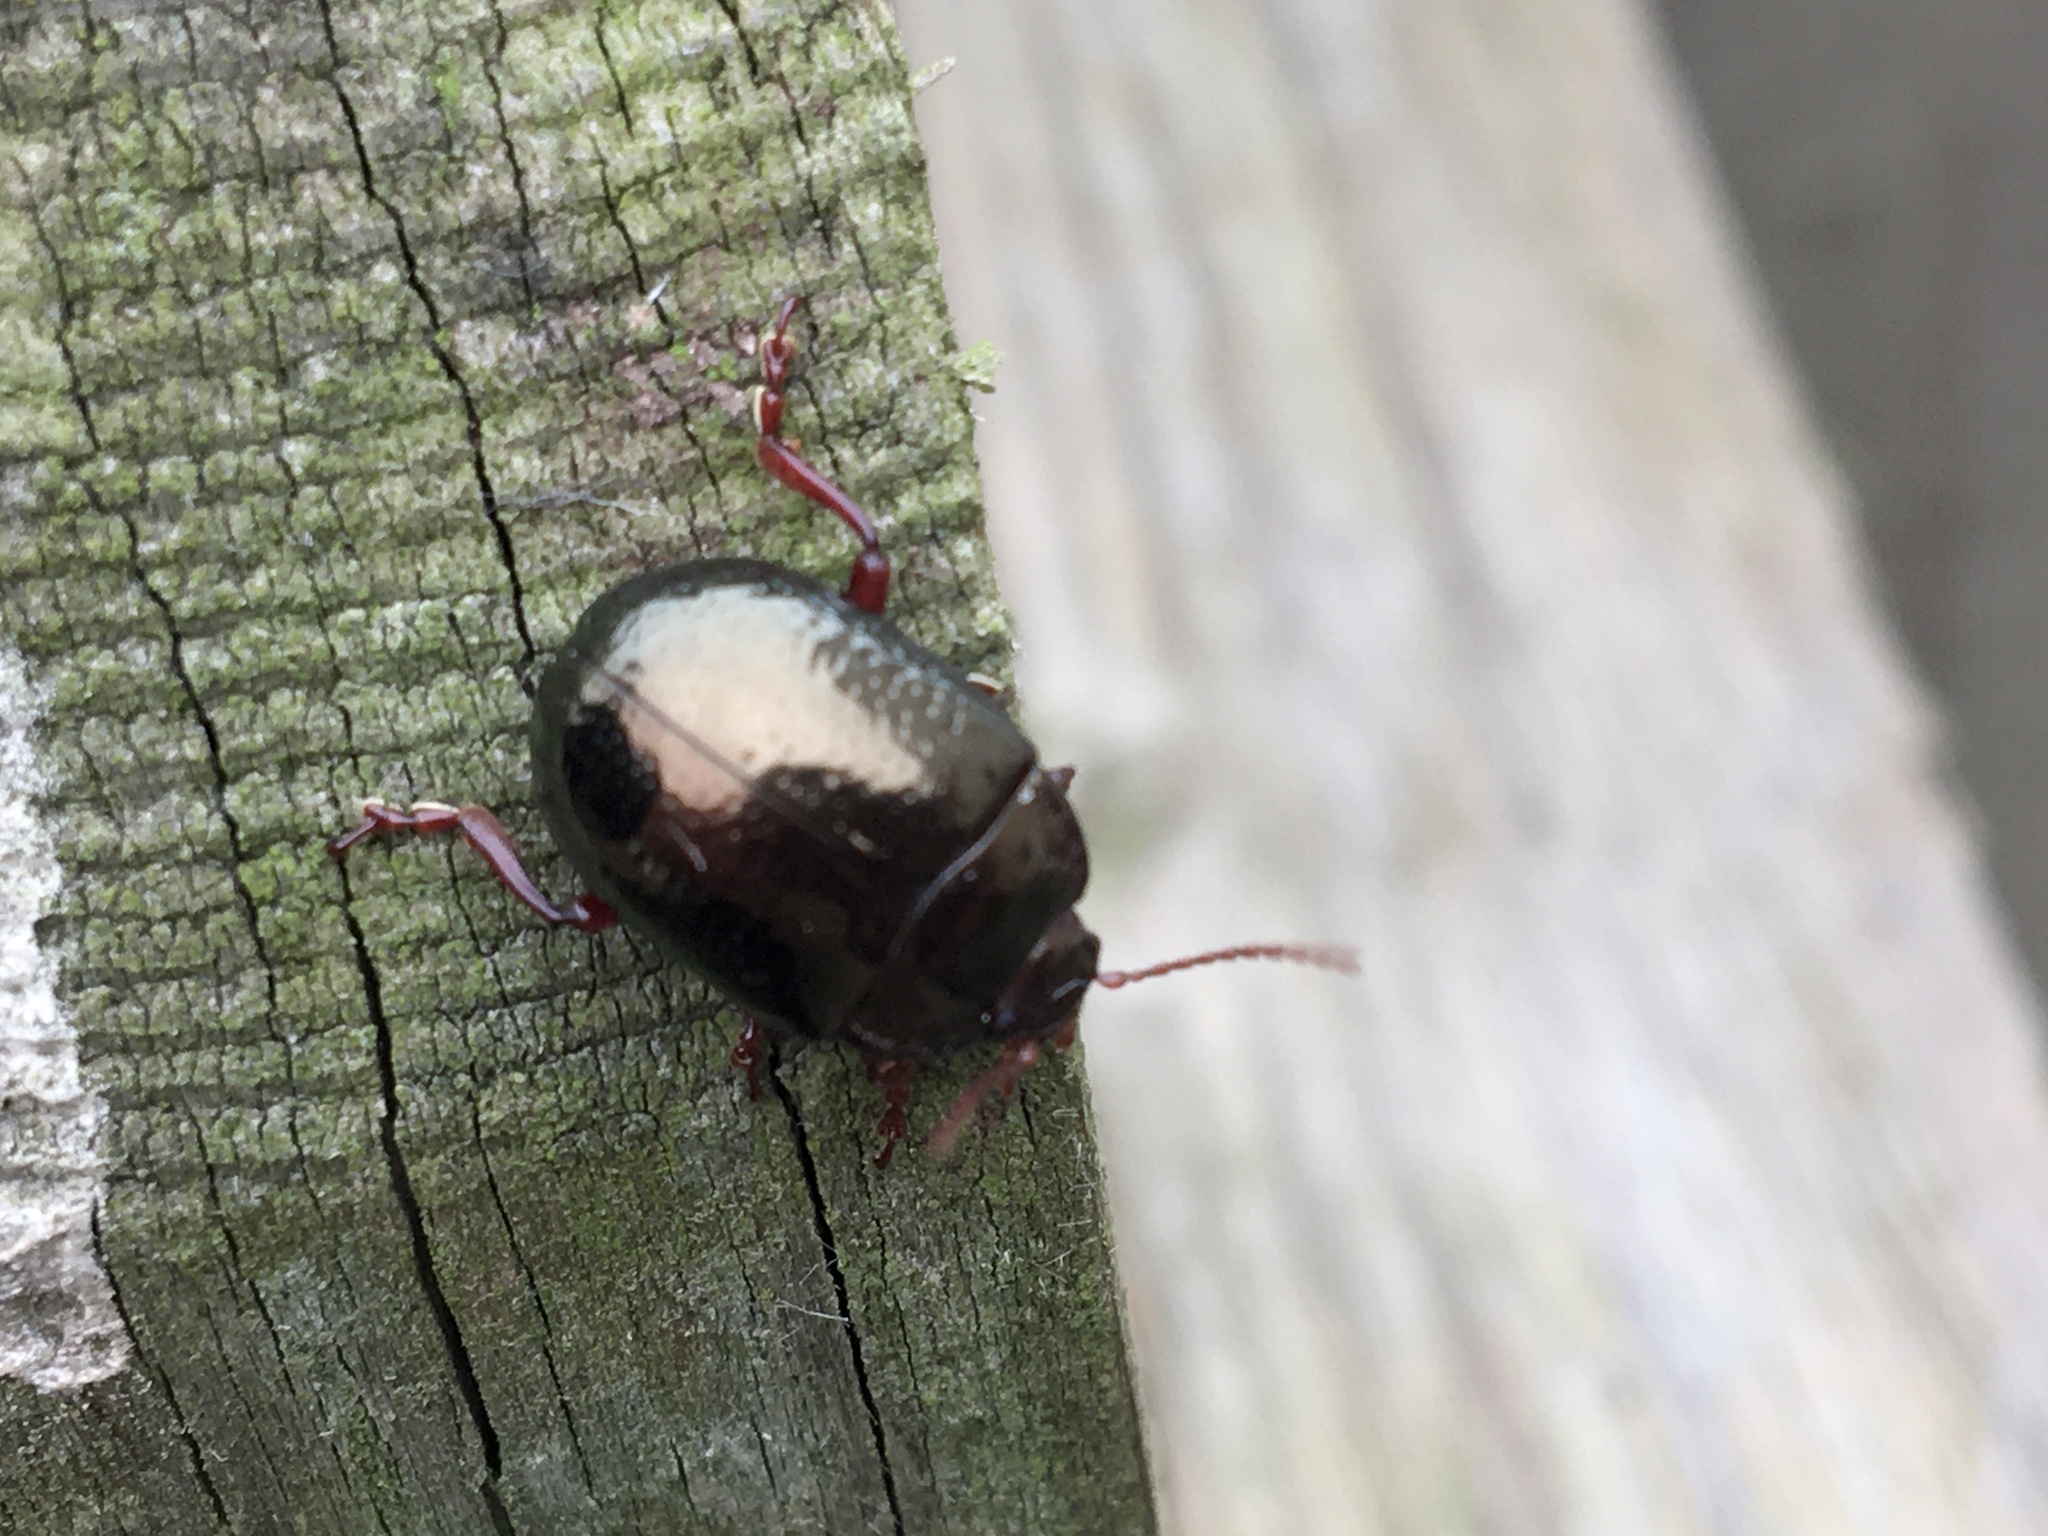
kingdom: Animalia
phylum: Arthropoda
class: Insecta
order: Coleoptera
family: Chrysomelidae
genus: Chrysolina
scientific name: Chrysolina bankii
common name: Leaf beetle
